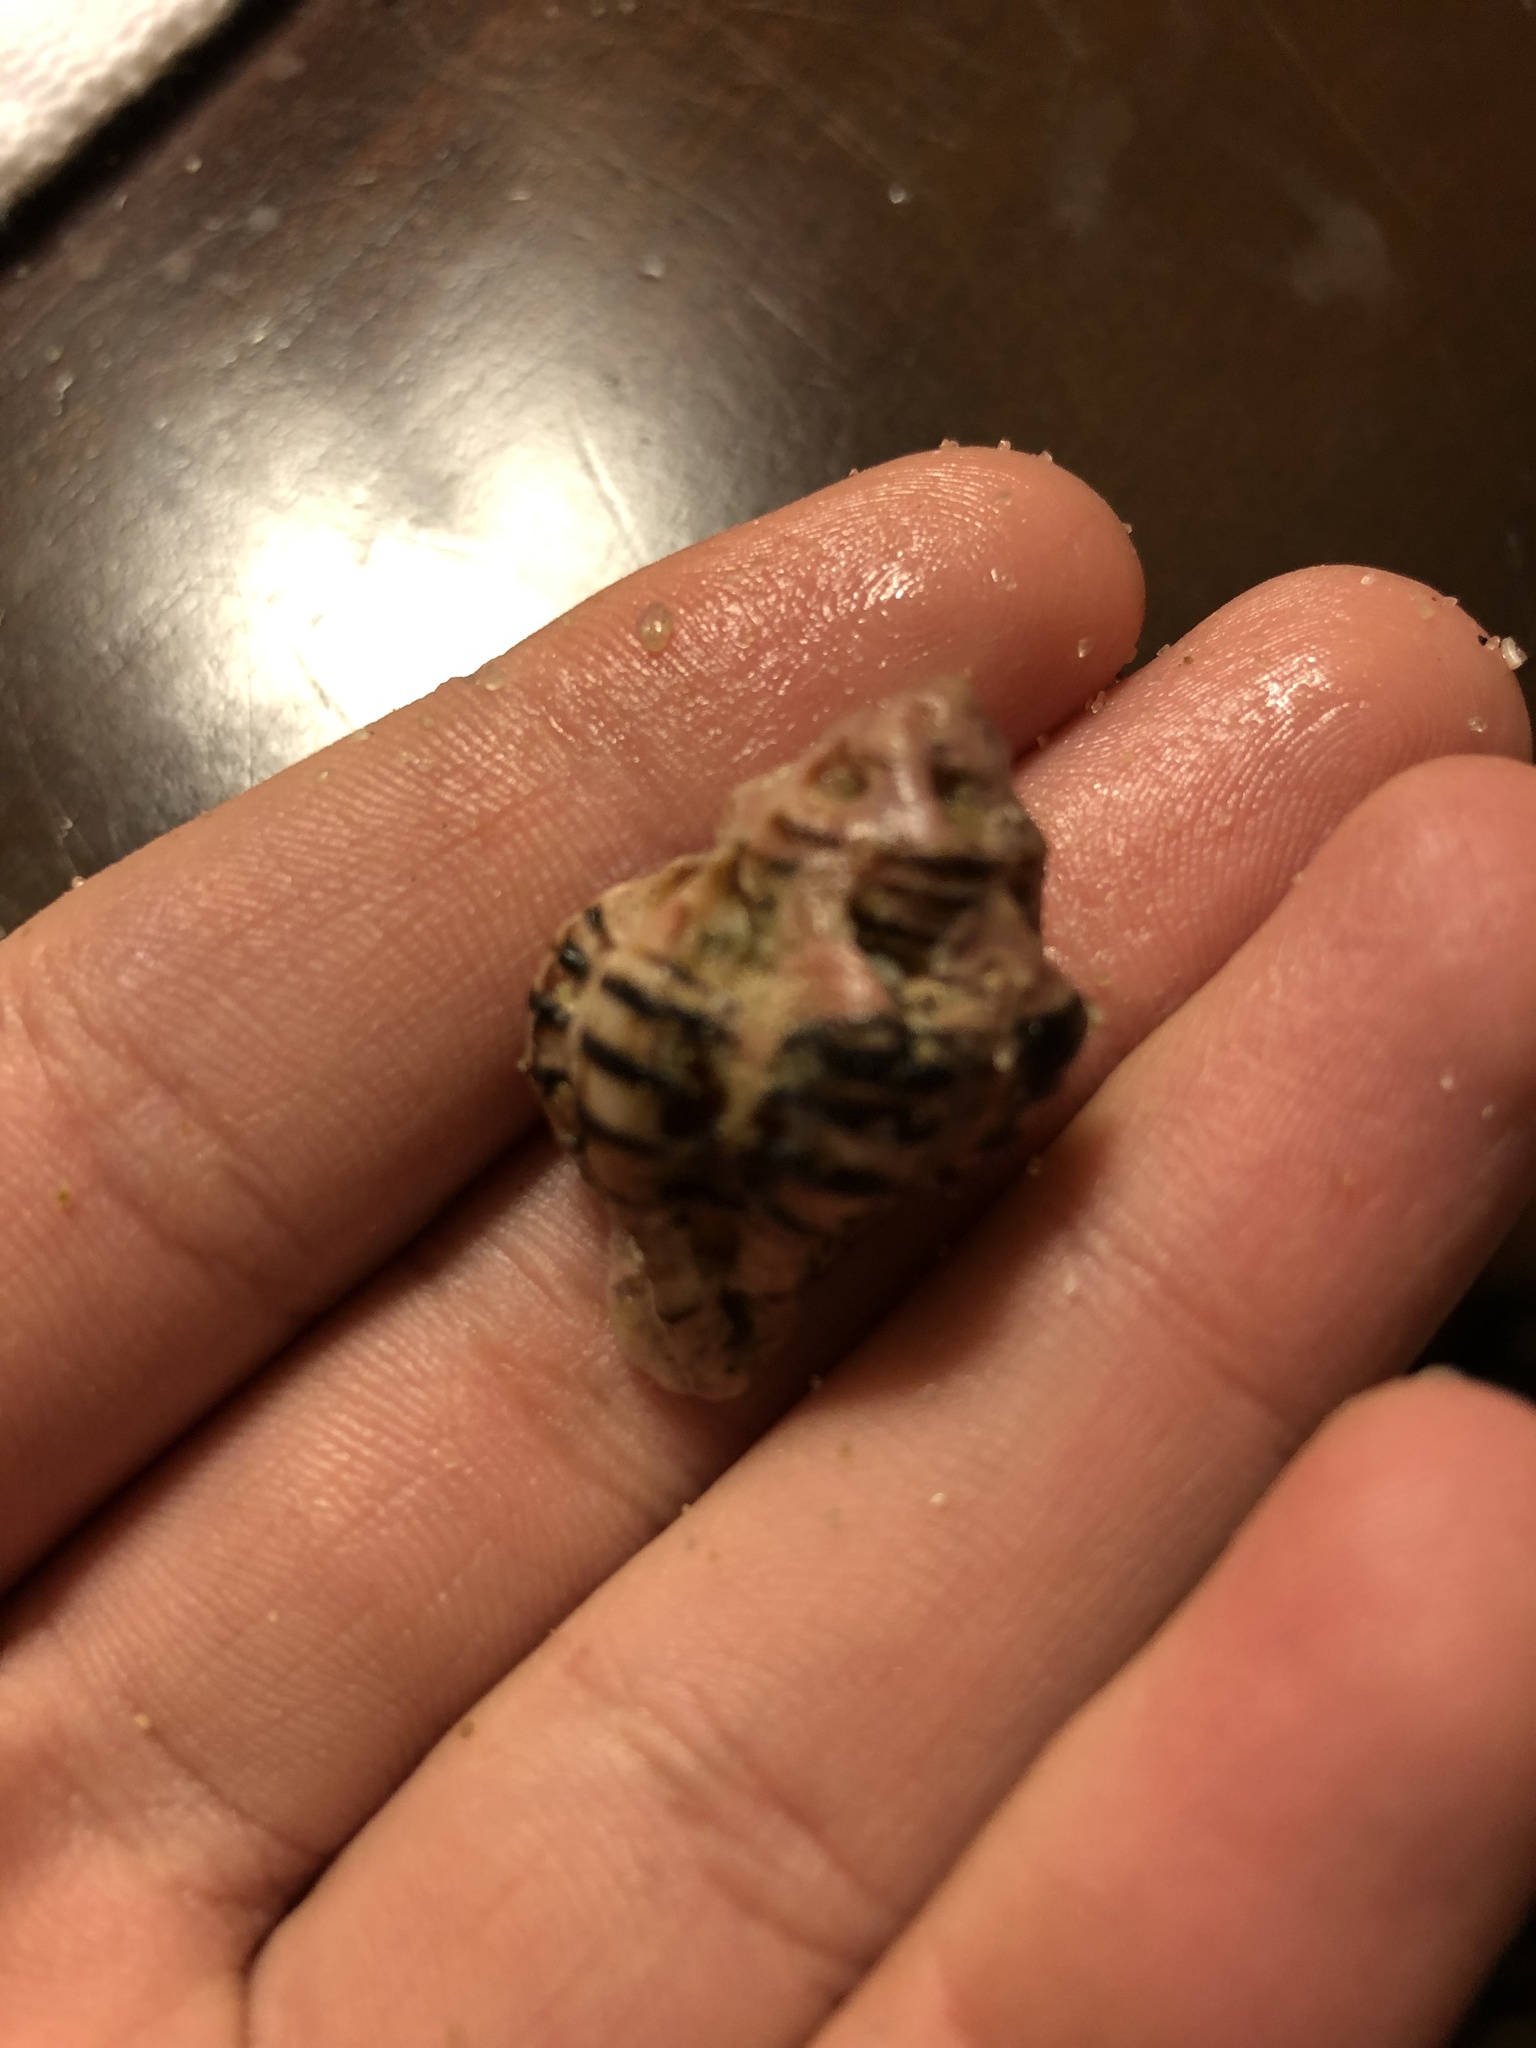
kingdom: Animalia
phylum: Mollusca
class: Gastropoda
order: Neogastropoda
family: Muricidae
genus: Maxwellia
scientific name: Maxwellia gemma
